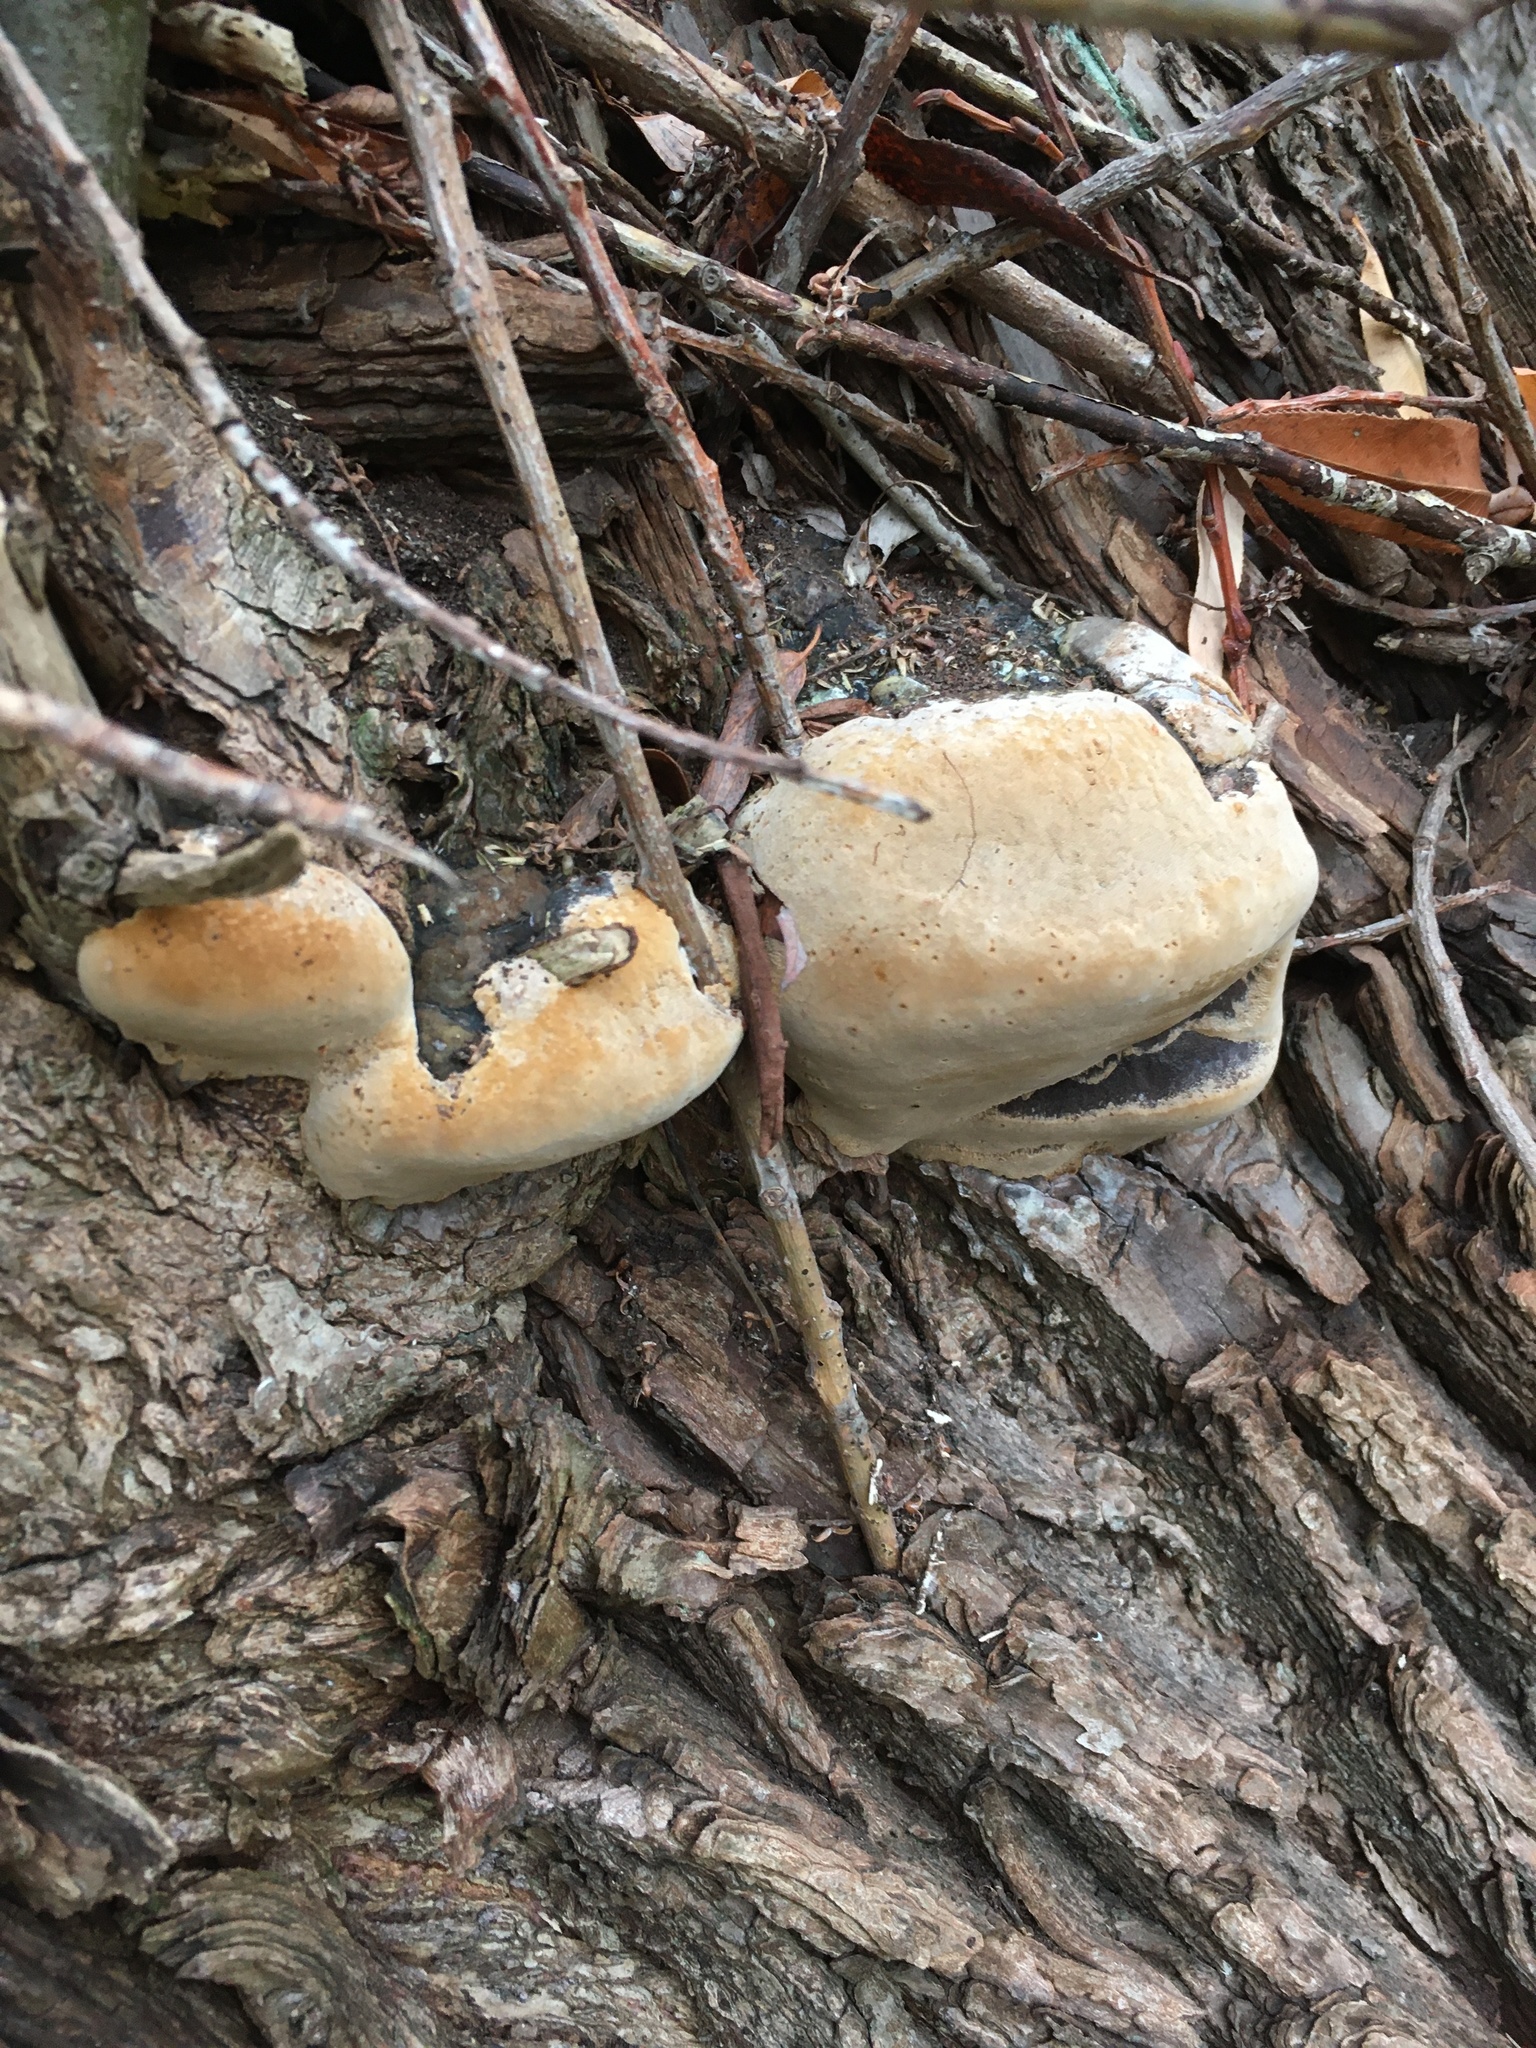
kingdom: Fungi
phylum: Basidiomycota
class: Agaricomycetes
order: Hymenochaetales
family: Hymenochaetaceae
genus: Phellinus
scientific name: Phellinus igniarius
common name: Willow bracket
